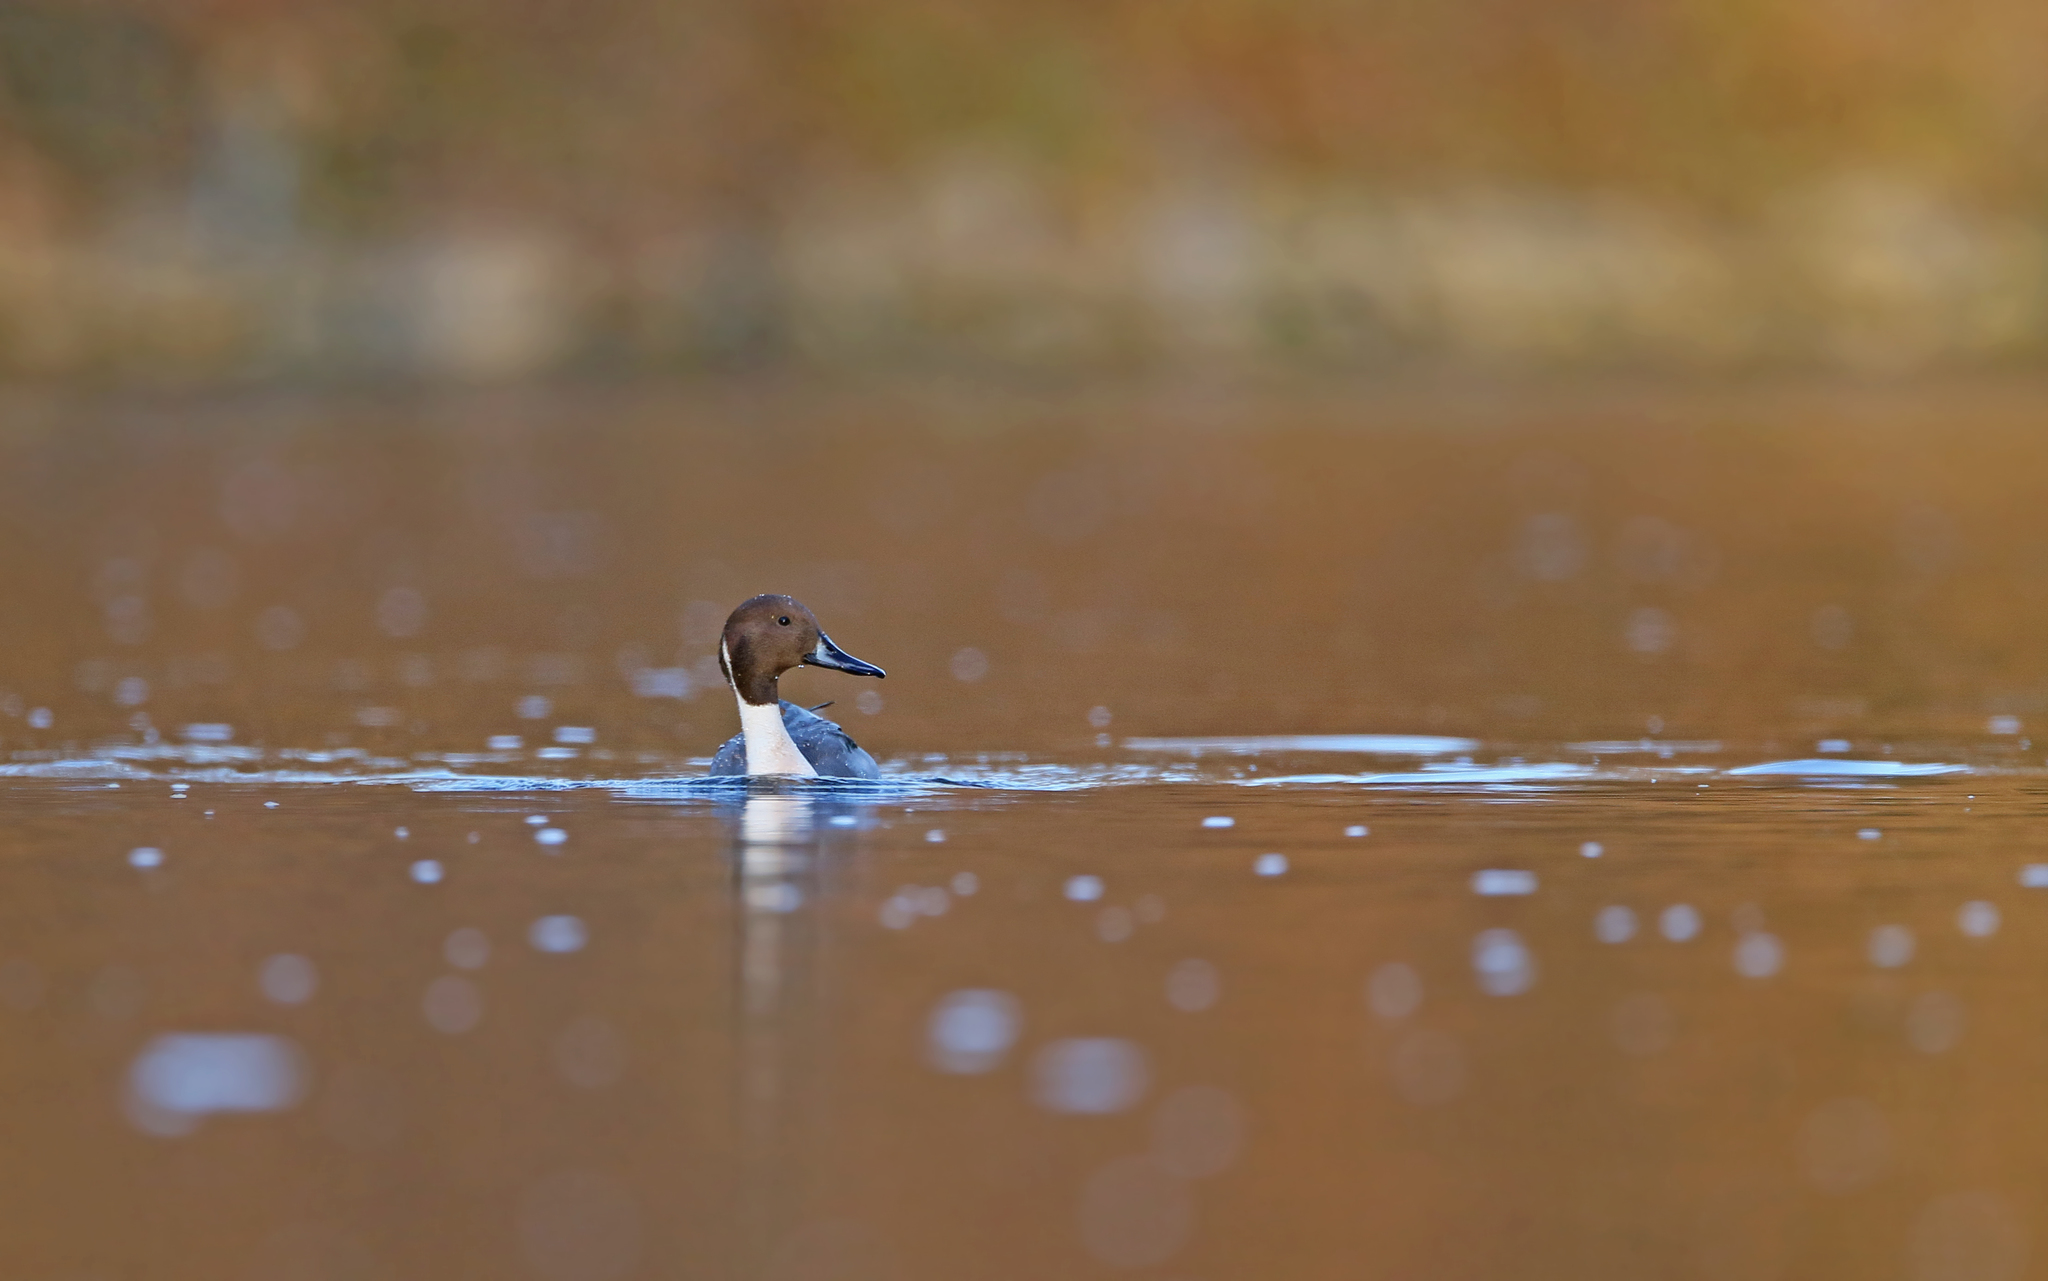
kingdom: Animalia
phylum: Chordata
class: Aves
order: Anseriformes
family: Anatidae
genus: Anas
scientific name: Anas acuta
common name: Northern pintail
